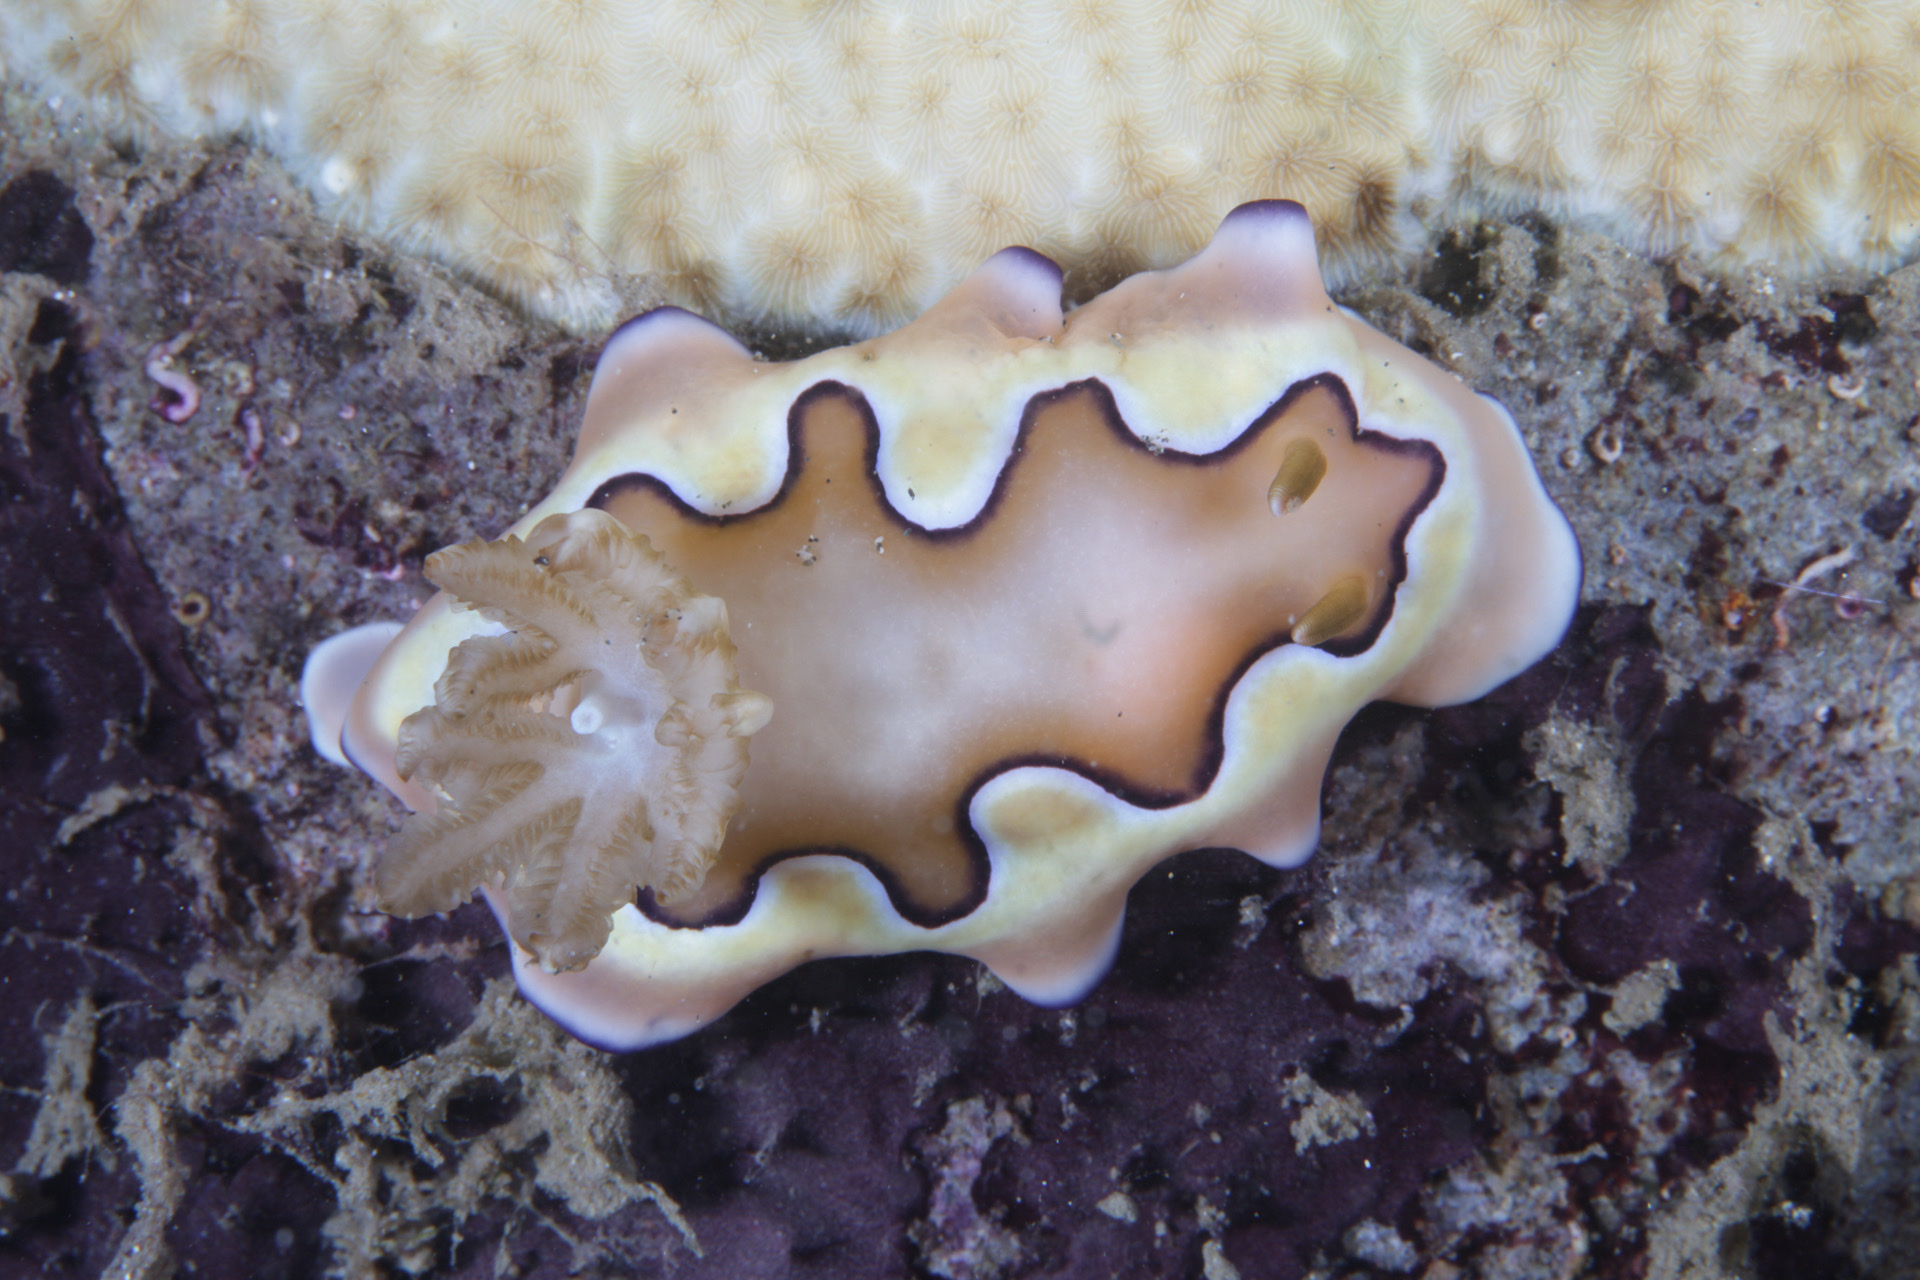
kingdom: Animalia
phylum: Mollusca
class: Gastropoda
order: Nudibranchia
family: Chromodorididae
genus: Goniobranchus
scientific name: Goniobranchus coi
